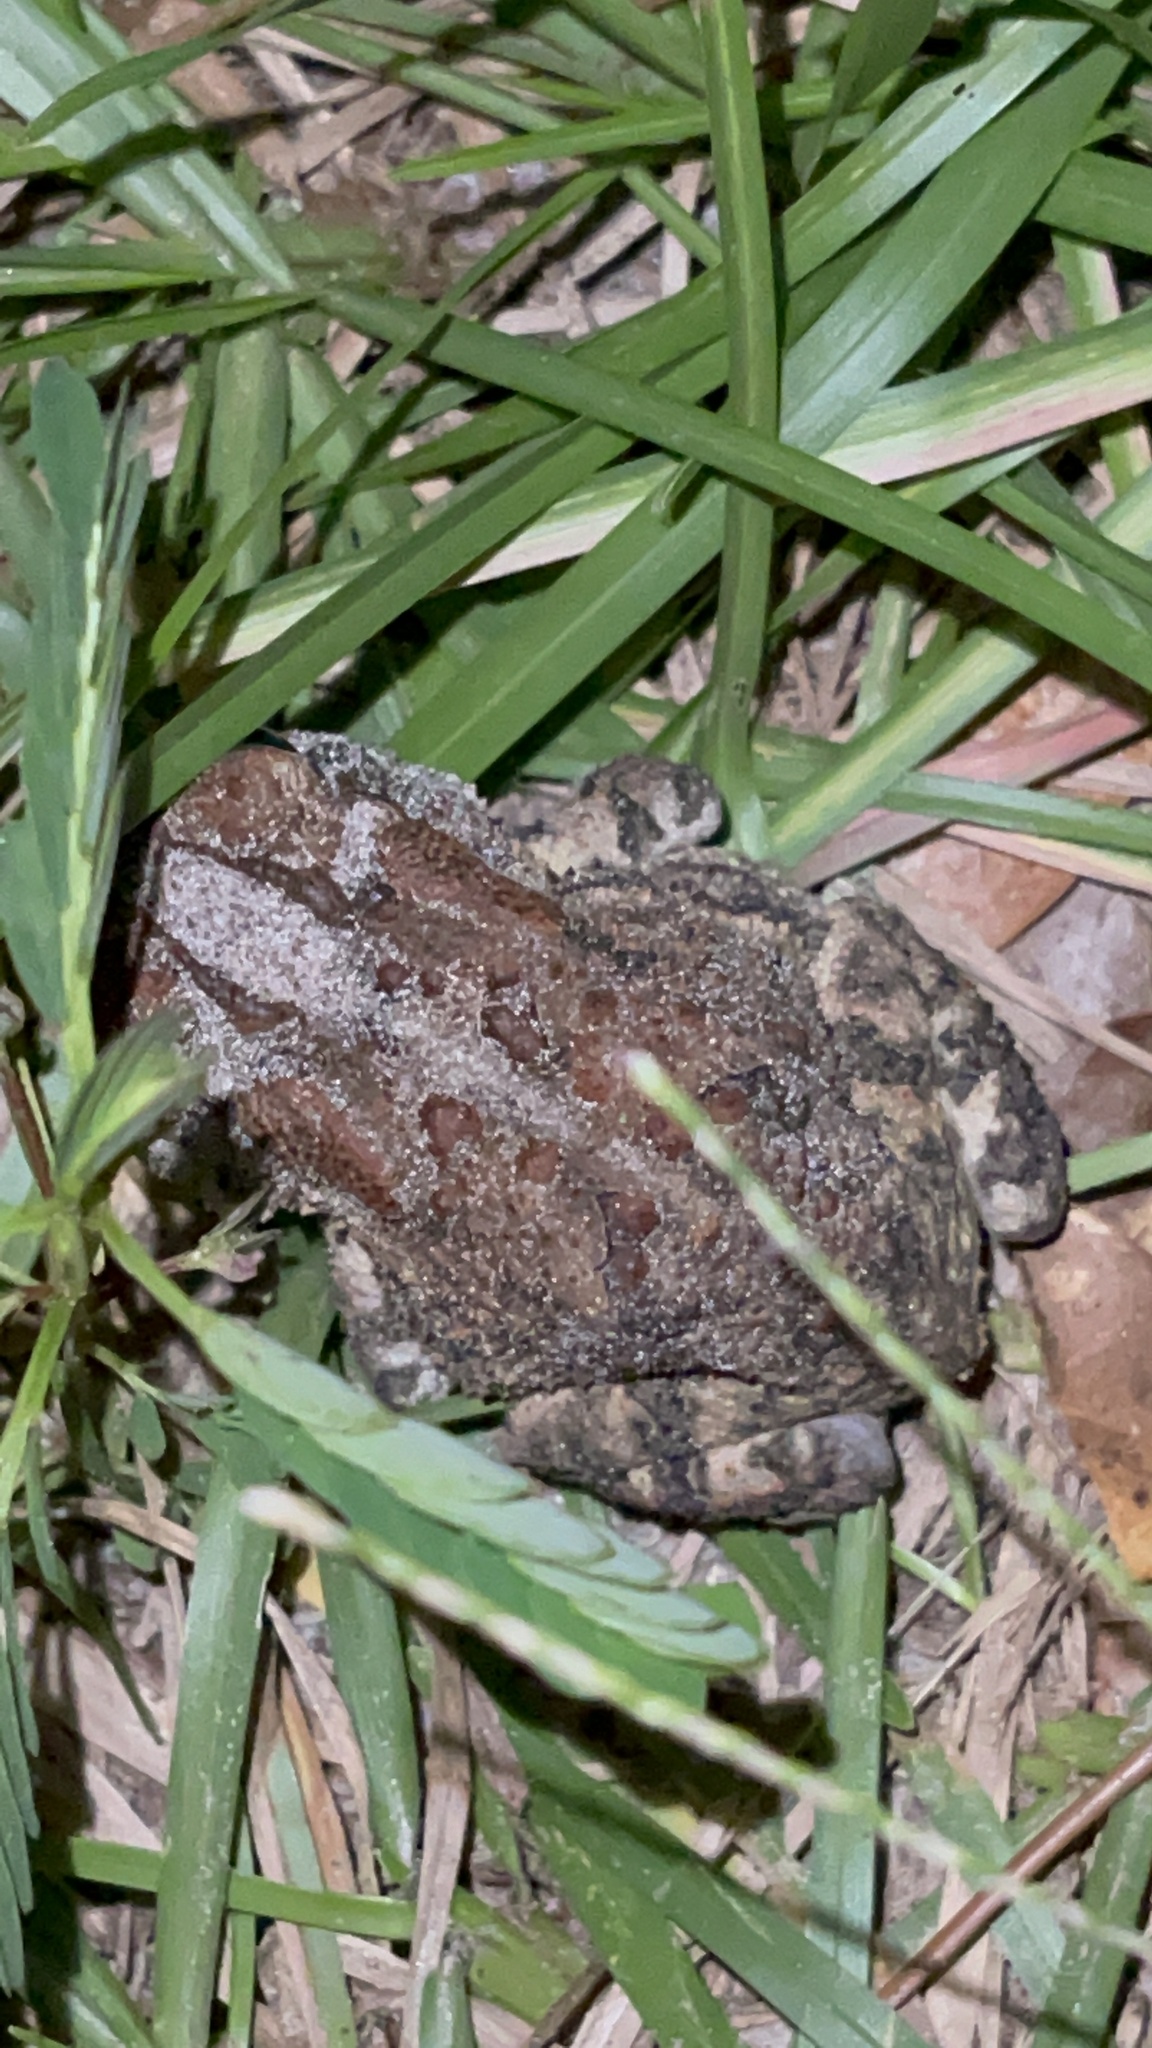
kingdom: Animalia
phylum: Chordata
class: Amphibia
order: Anura
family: Bufonidae
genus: Anaxyrus
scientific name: Anaxyrus terrestris
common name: Southern toad
